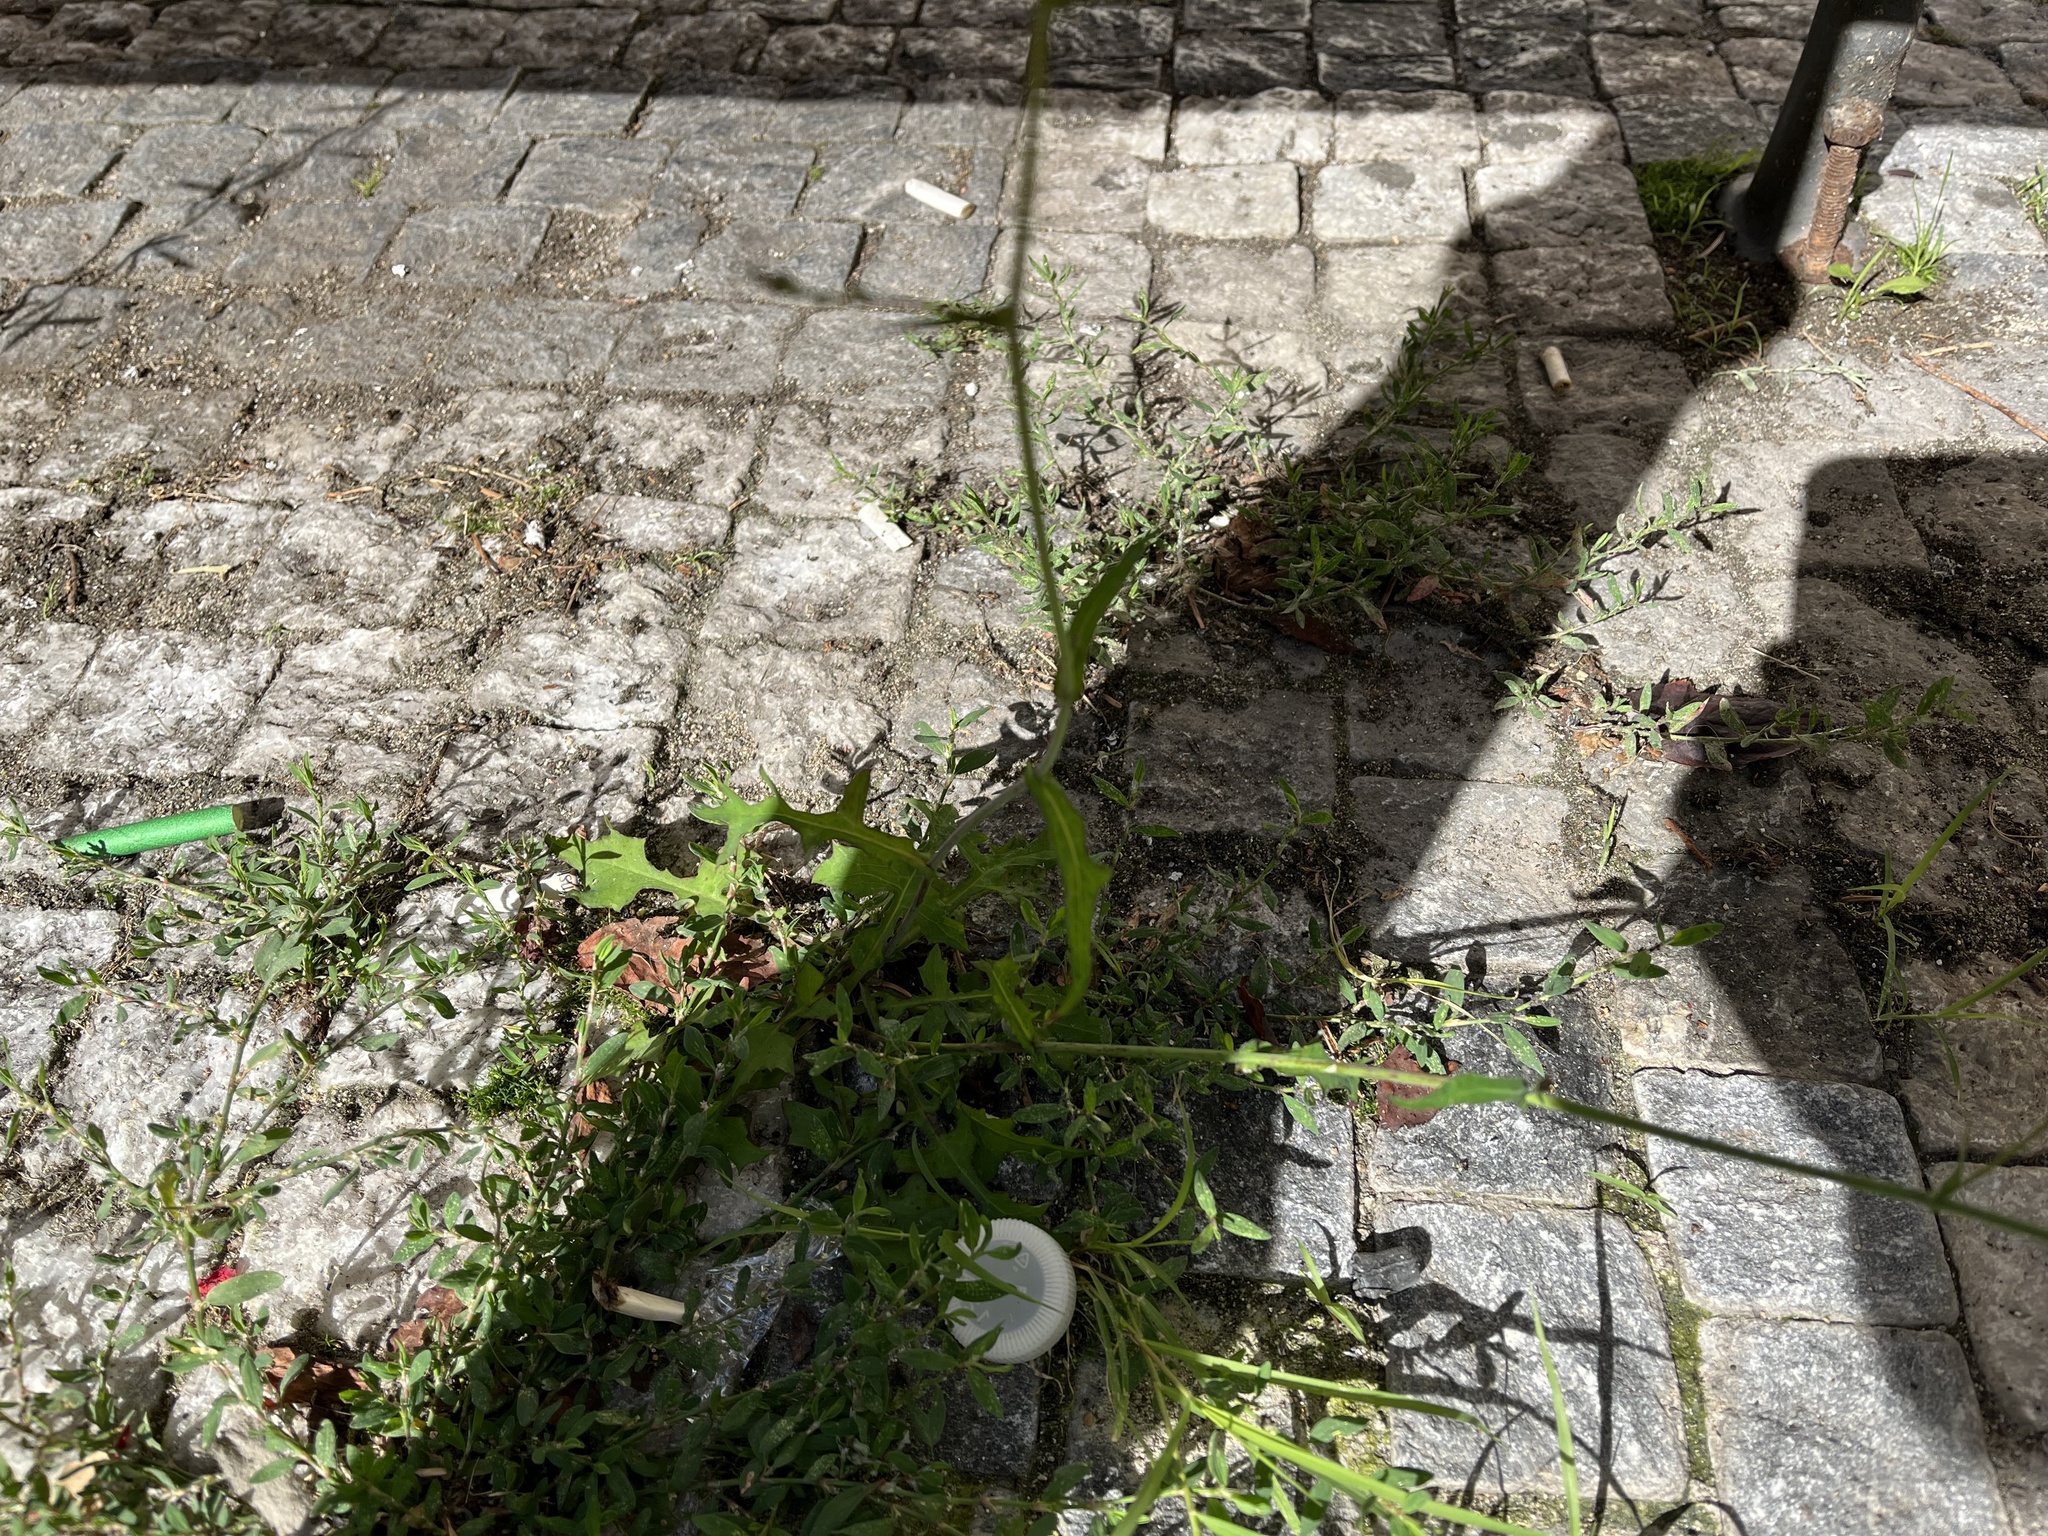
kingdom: Plantae
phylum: Tracheophyta
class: Magnoliopsida
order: Asterales
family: Asteraceae
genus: Mycelis
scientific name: Mycelis muralis
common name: Wall lettuce
